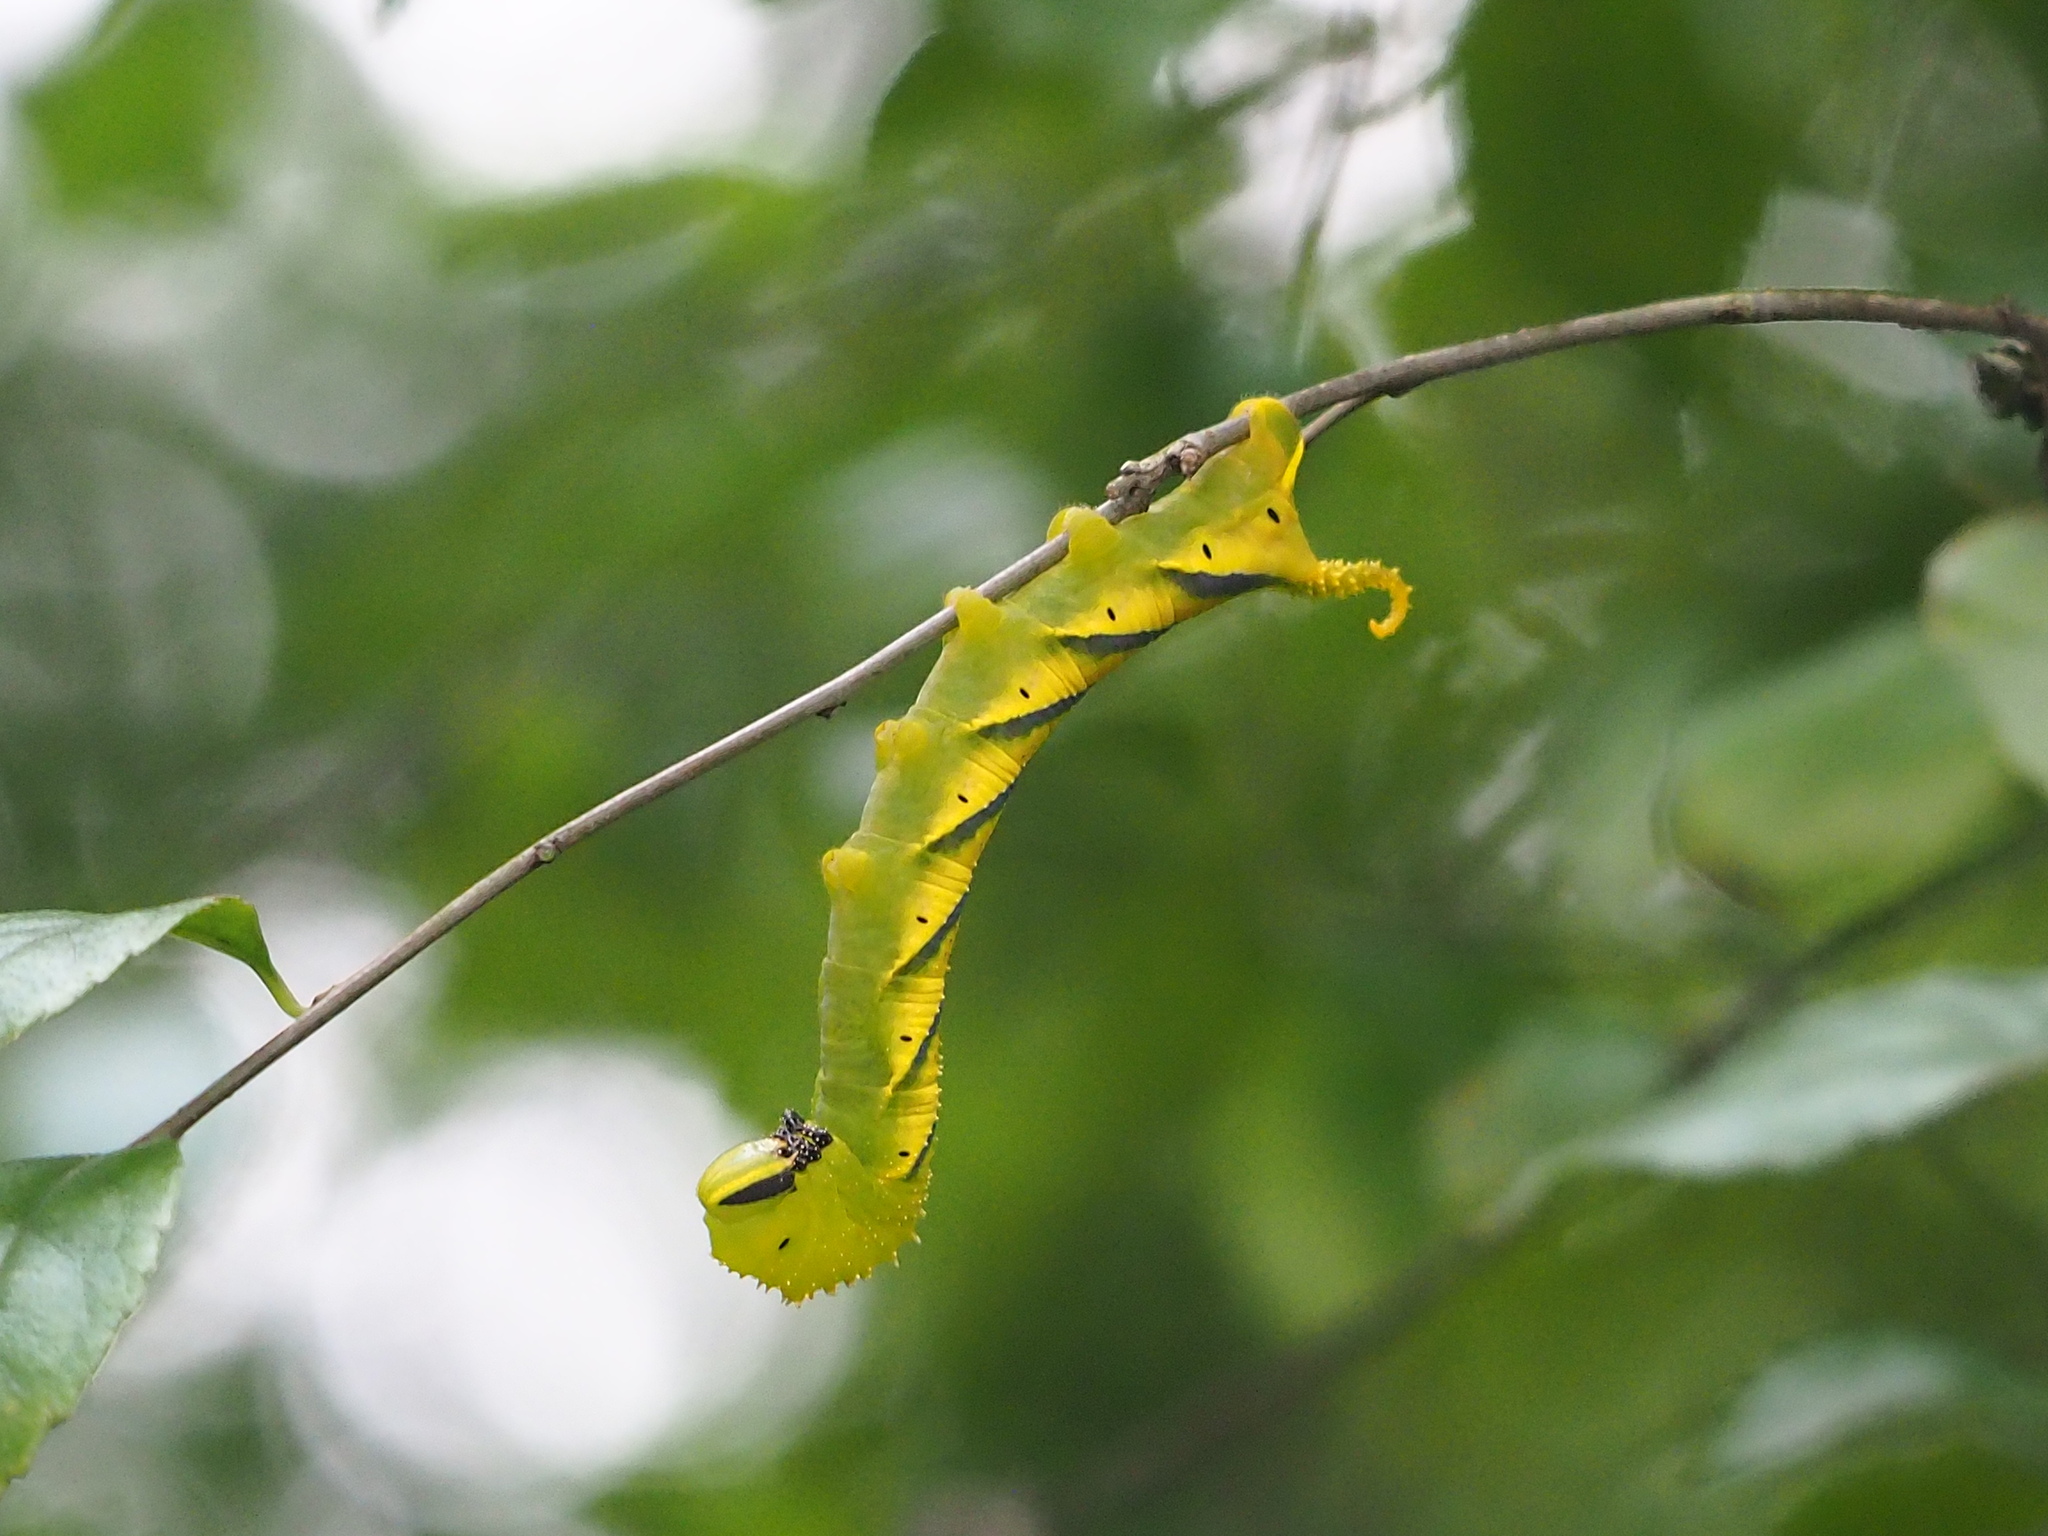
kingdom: Animalia
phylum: Arthropoda
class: Insecta
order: Lepidoptera
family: Sphingidae
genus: Acherontia
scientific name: Acherontia lachesis
